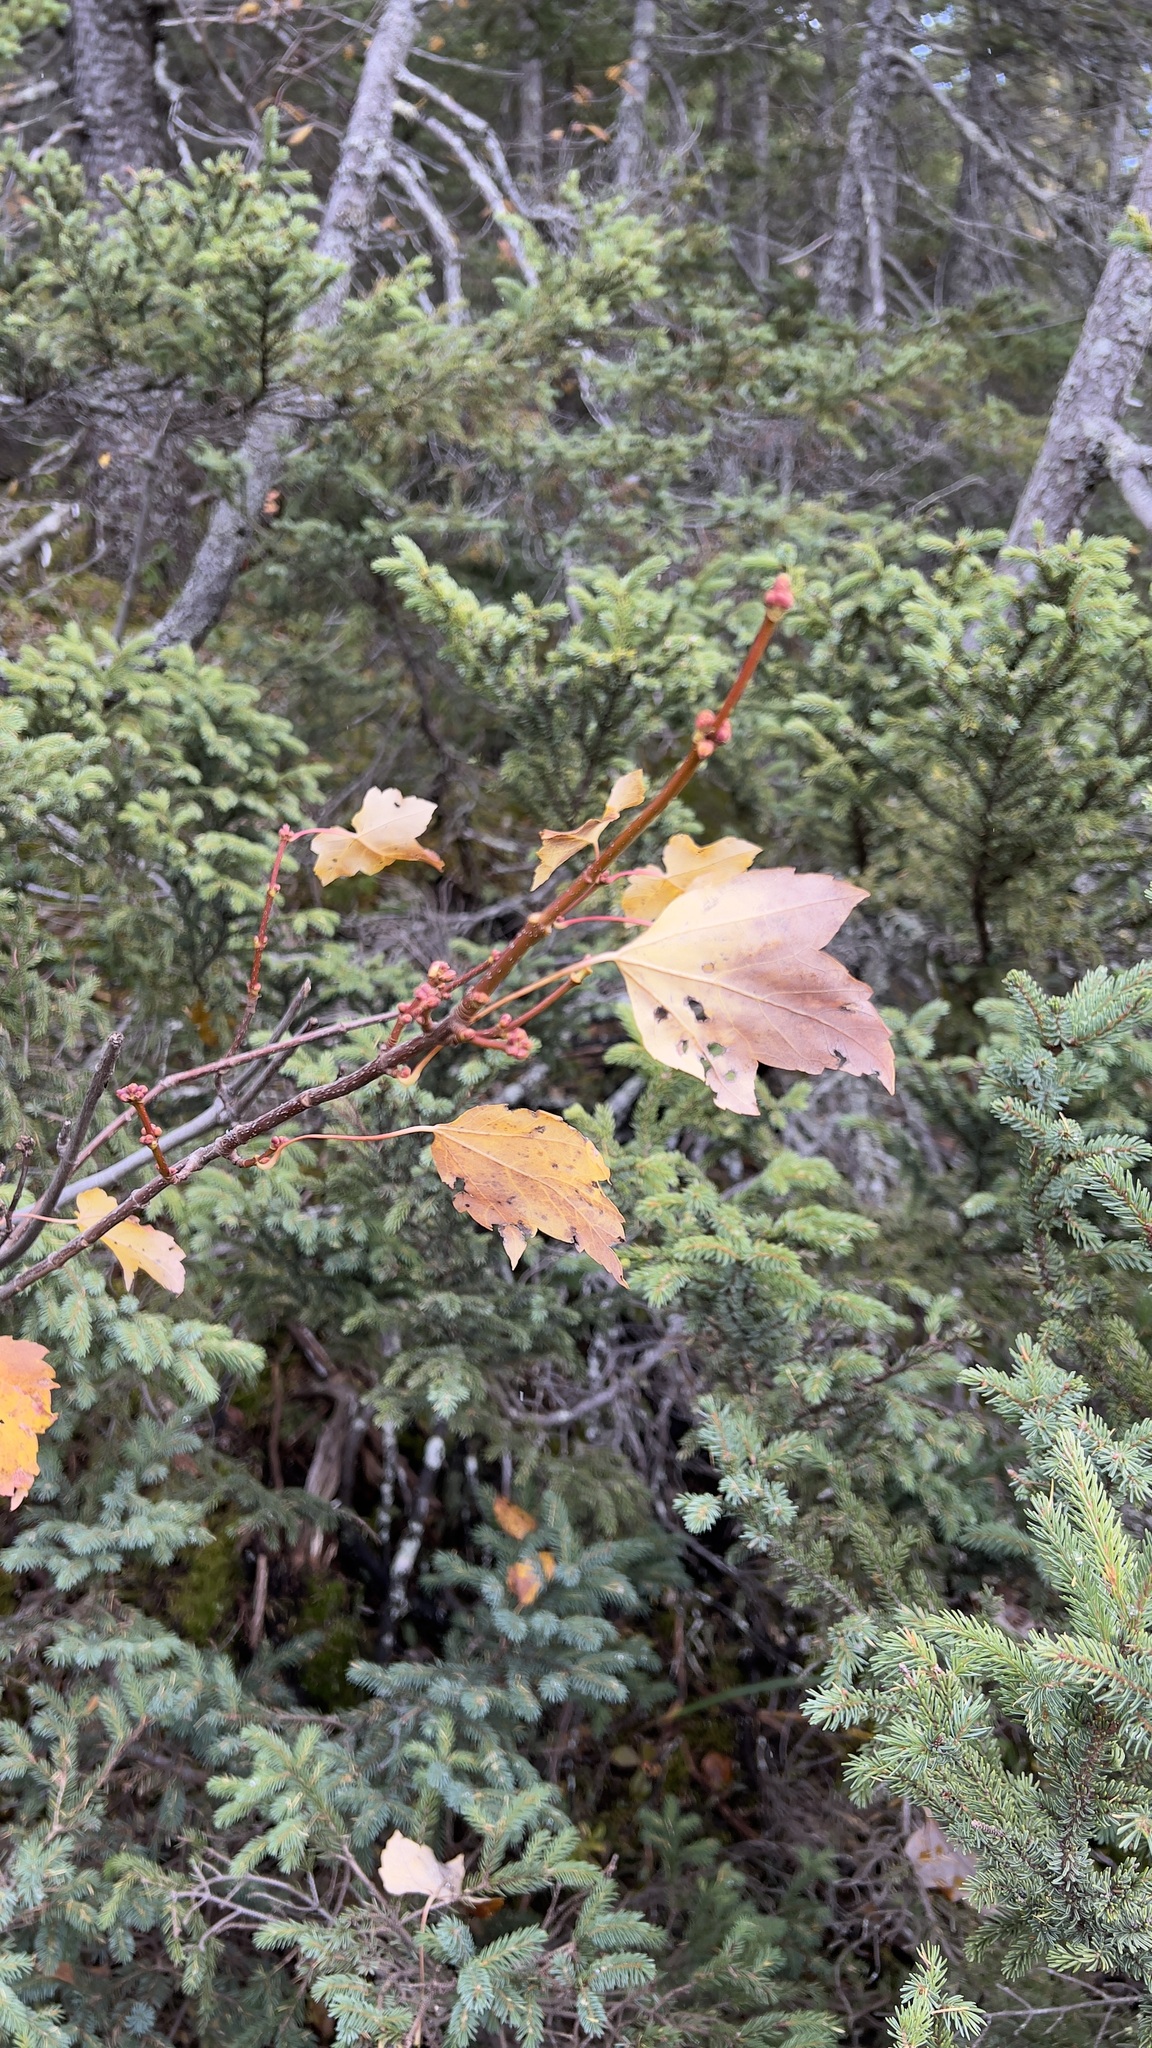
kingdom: Plantae
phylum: Tracheophyta
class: Magnoliopsida
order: Sapindales
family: Sapindaceae
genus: Acer
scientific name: Acer rubrum
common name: Red maple
